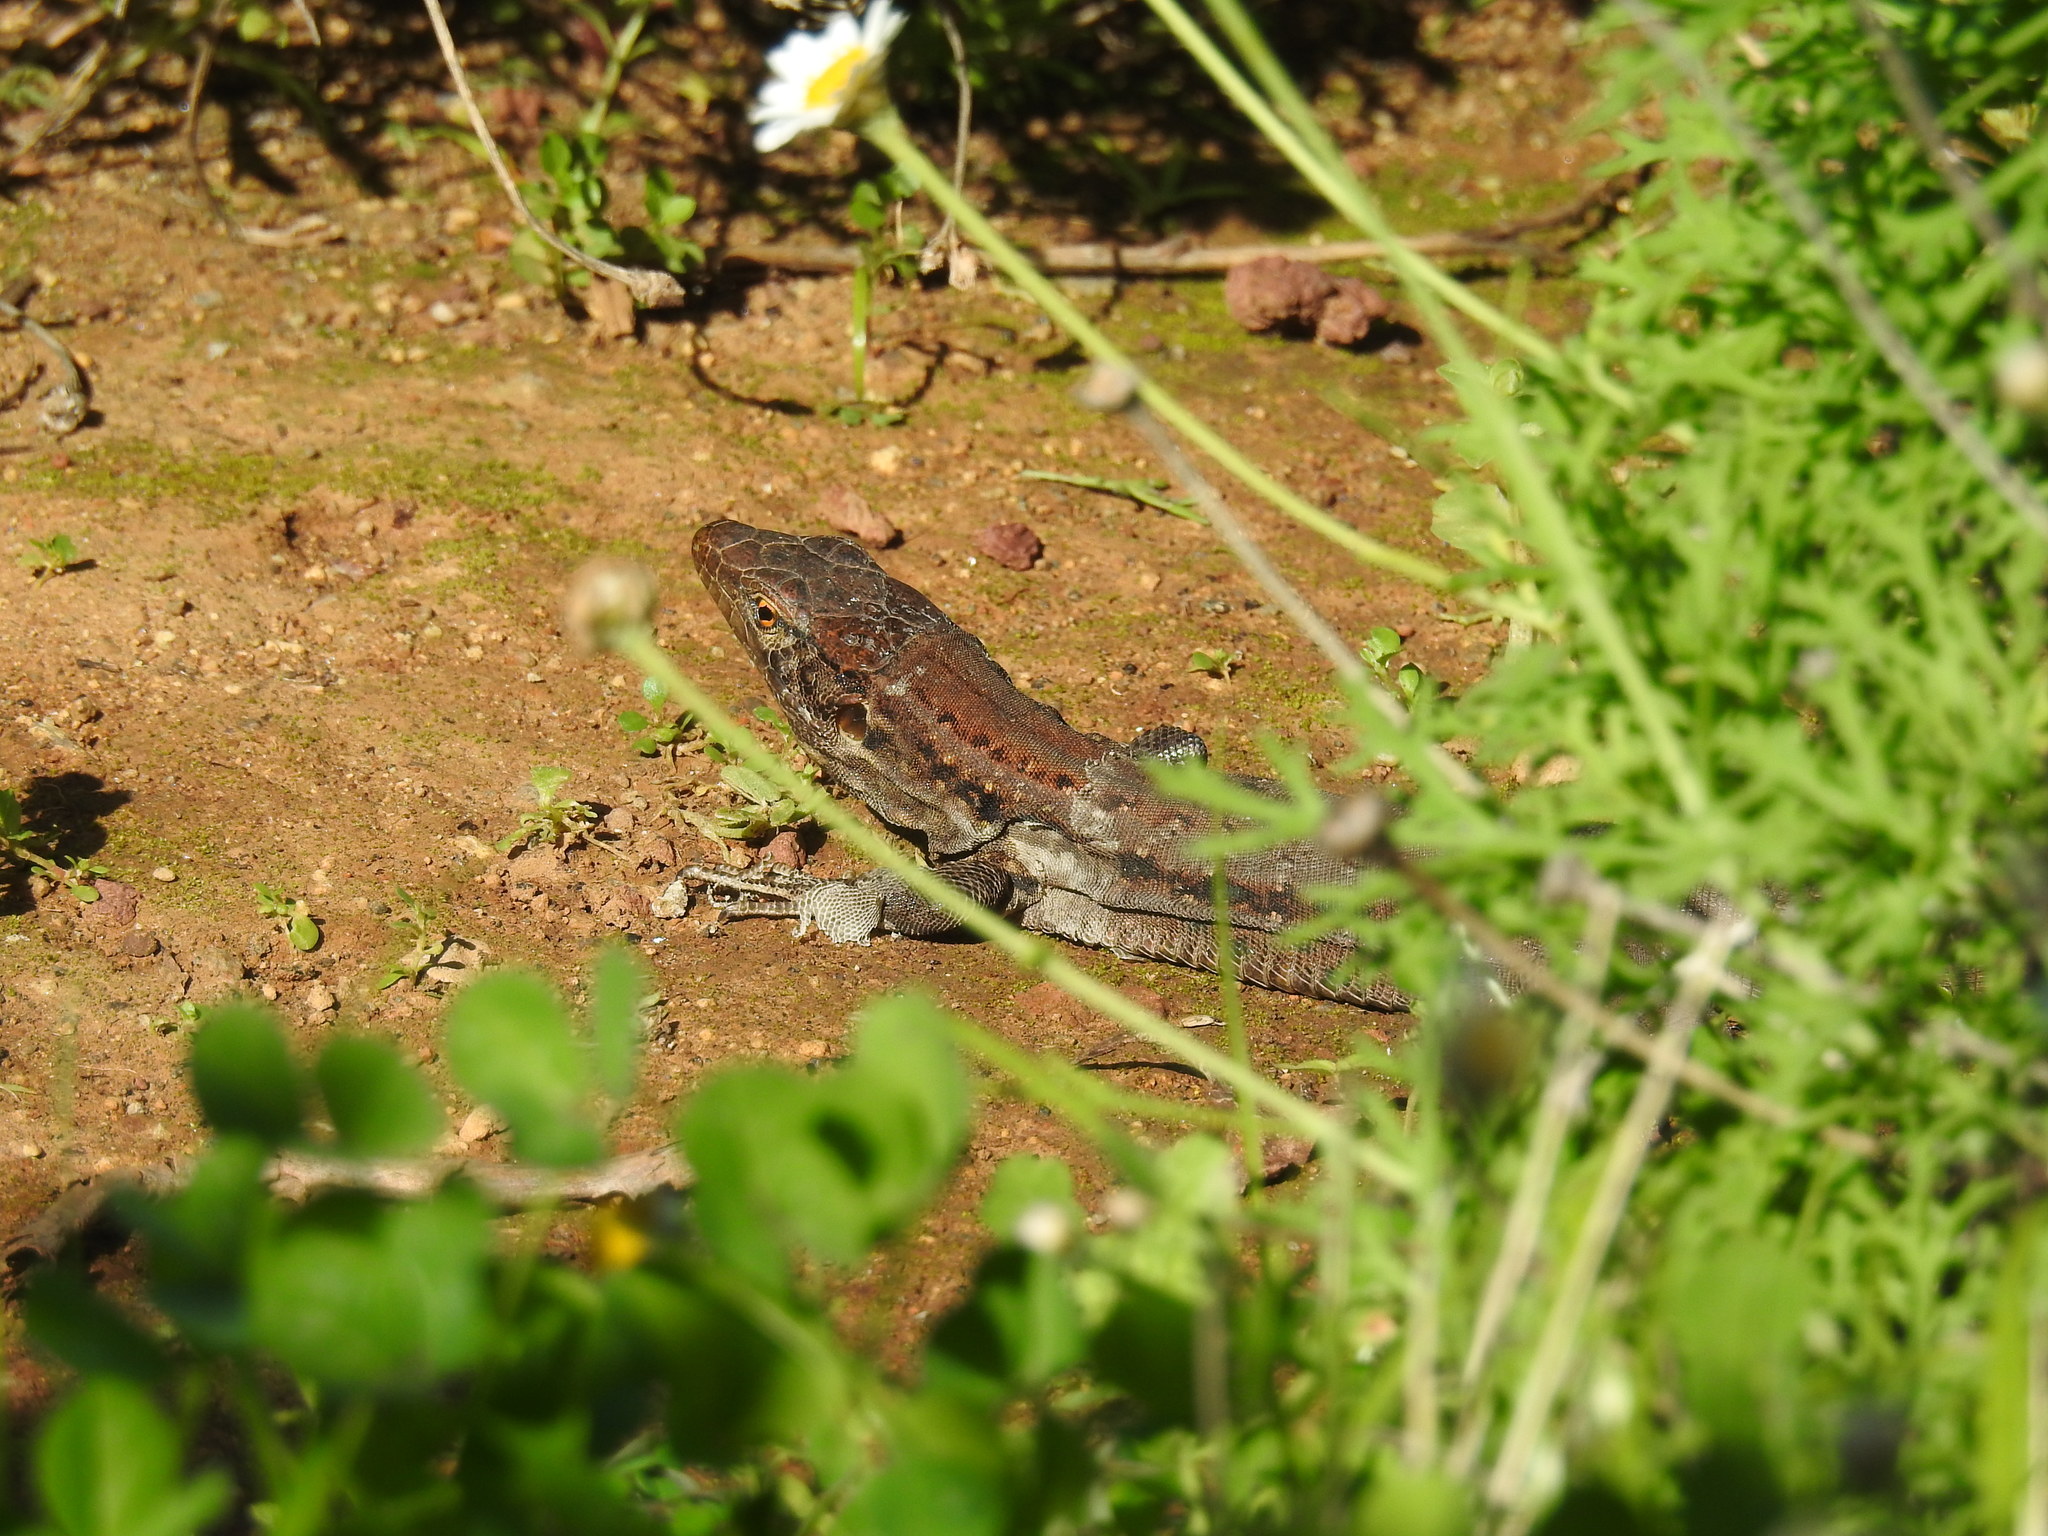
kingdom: Animalia
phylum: Chordata
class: Squamata
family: Lacertidae
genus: Gallotia
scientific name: Gallotia galloti
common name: Gallot's lizard
